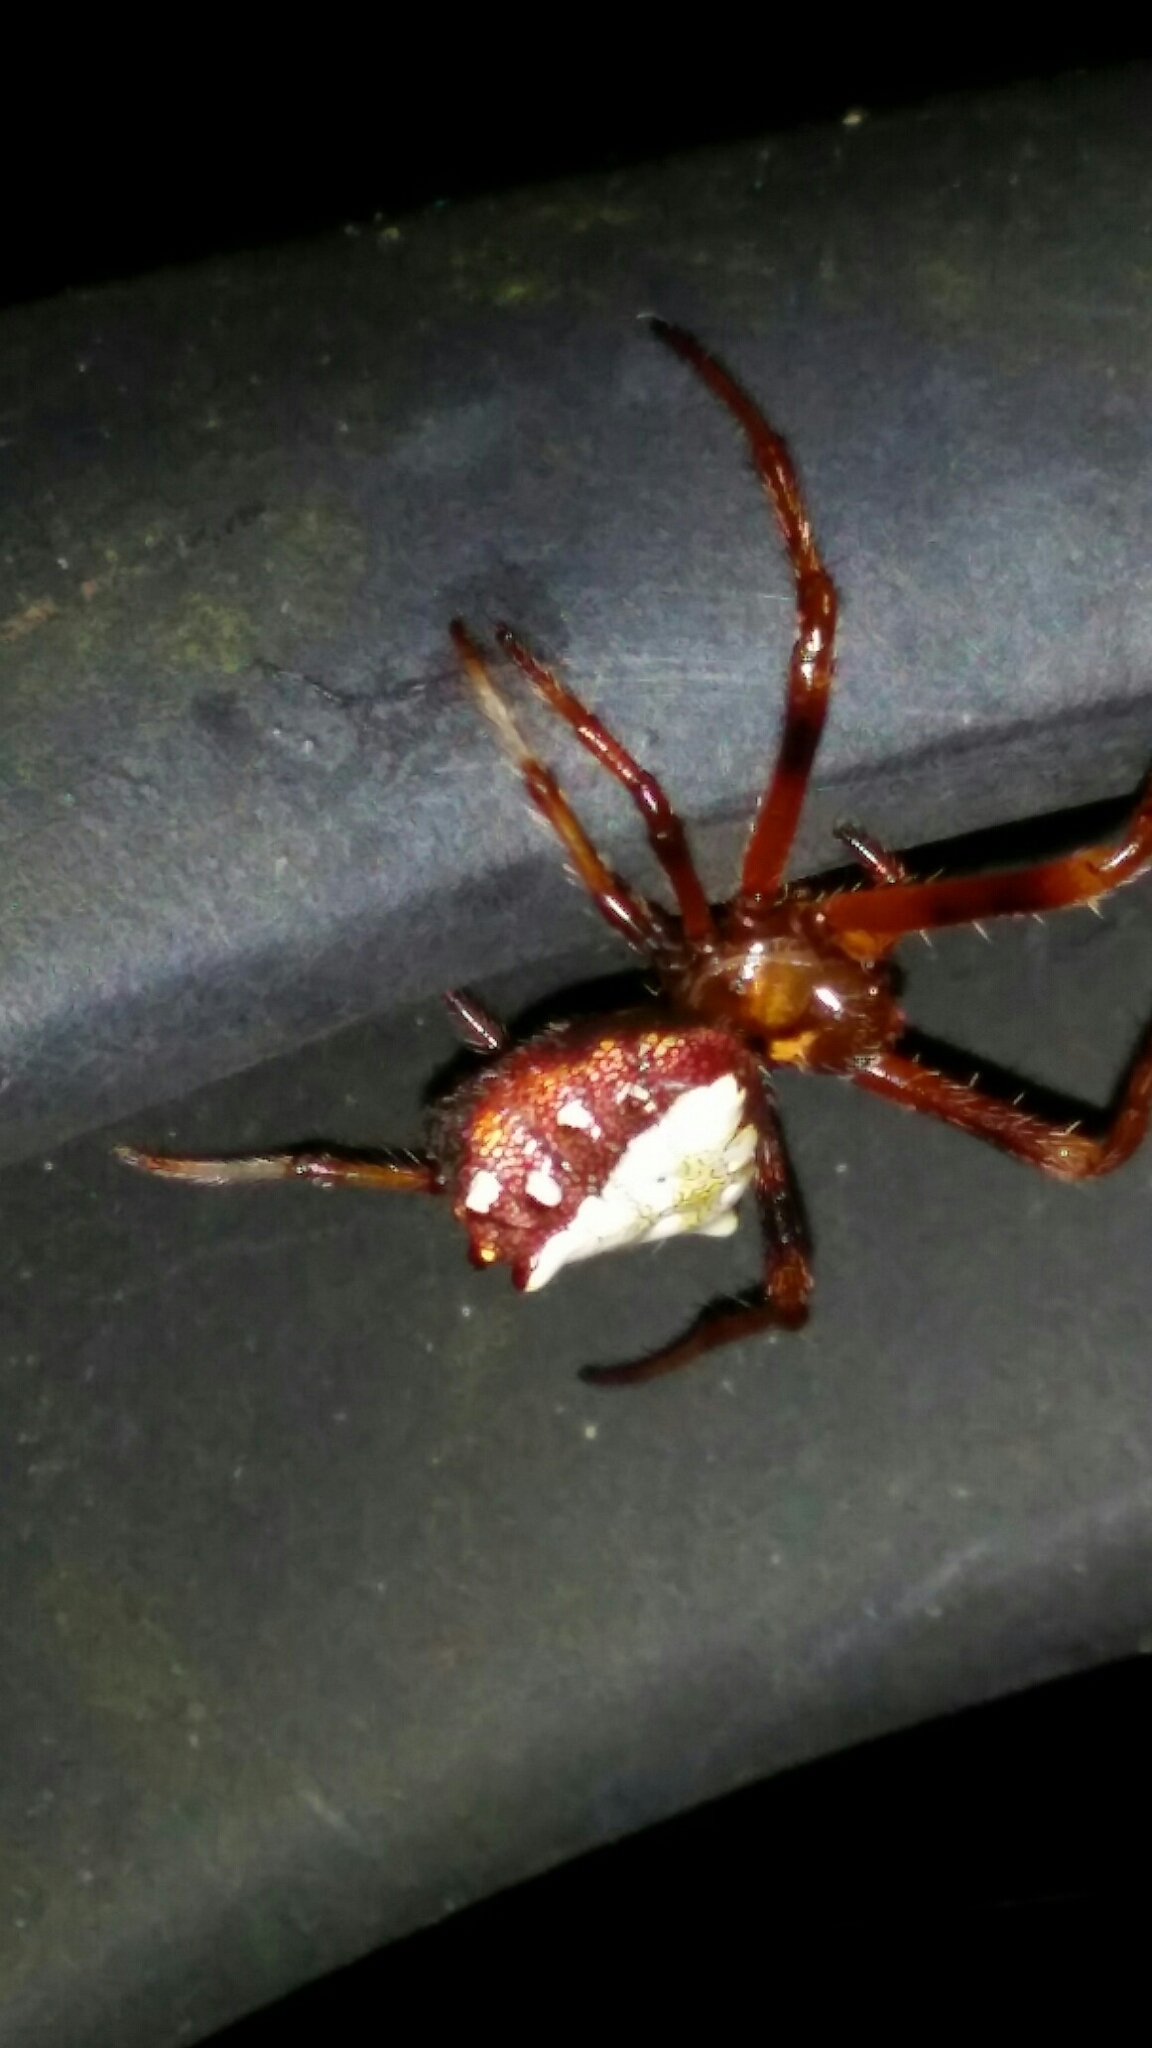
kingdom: Animalia
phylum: Arthropoda
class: Arachnida
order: Araneae
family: Araneidae
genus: Verrucosa
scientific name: Verrucosa arenata
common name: Orb weavers
